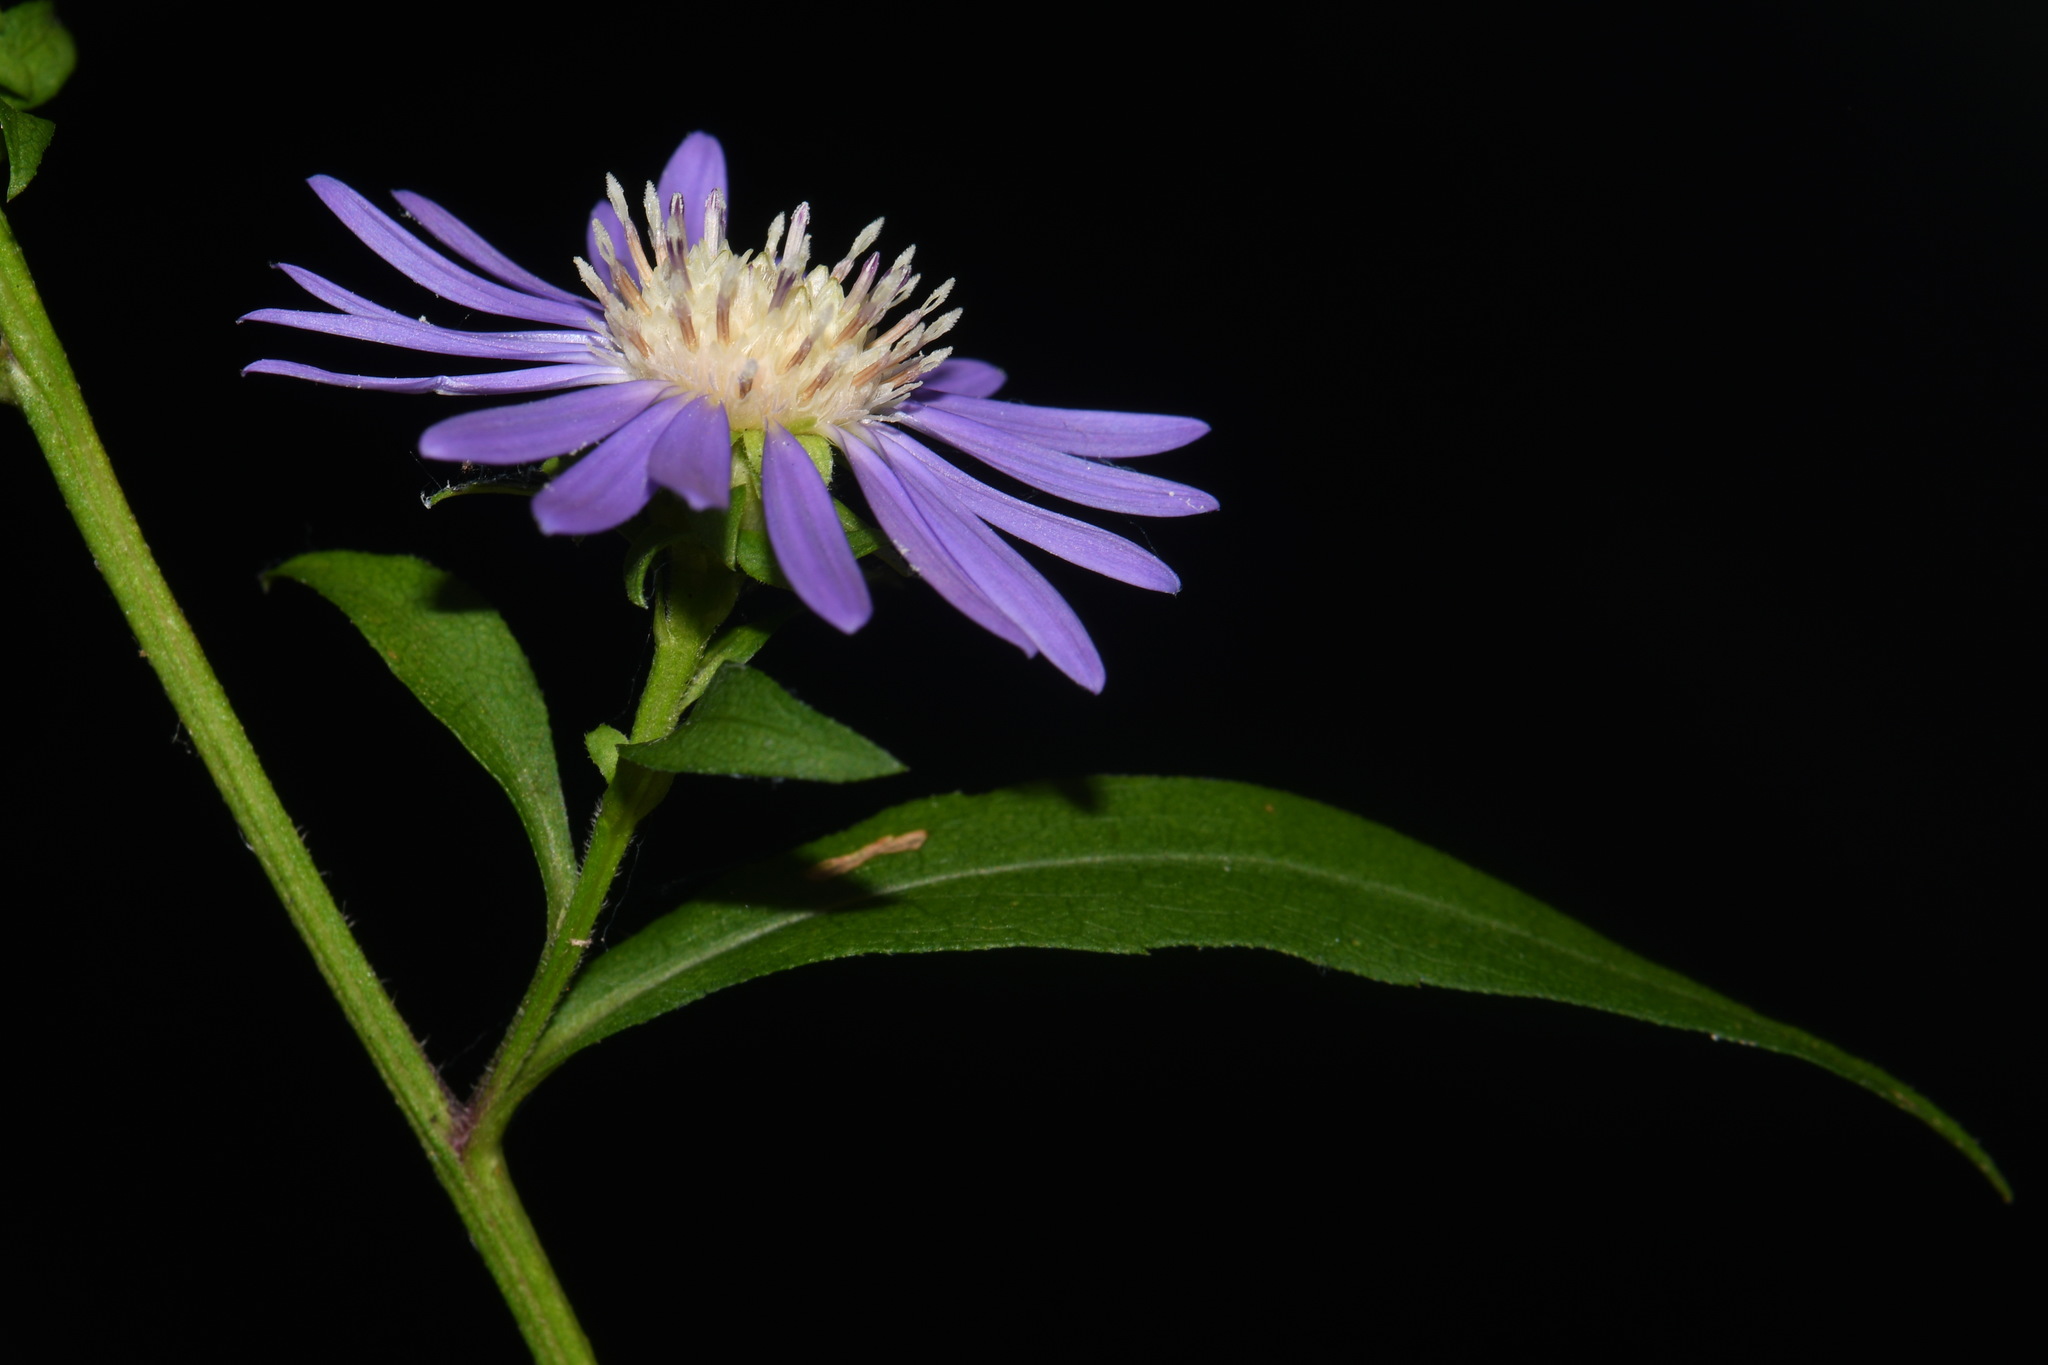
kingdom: Plantae
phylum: Tracheophyta
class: Magnoliopsida
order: Asterales
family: Asteraceae
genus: Symphyotrichum
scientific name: Symphyotrichum retroflexum
